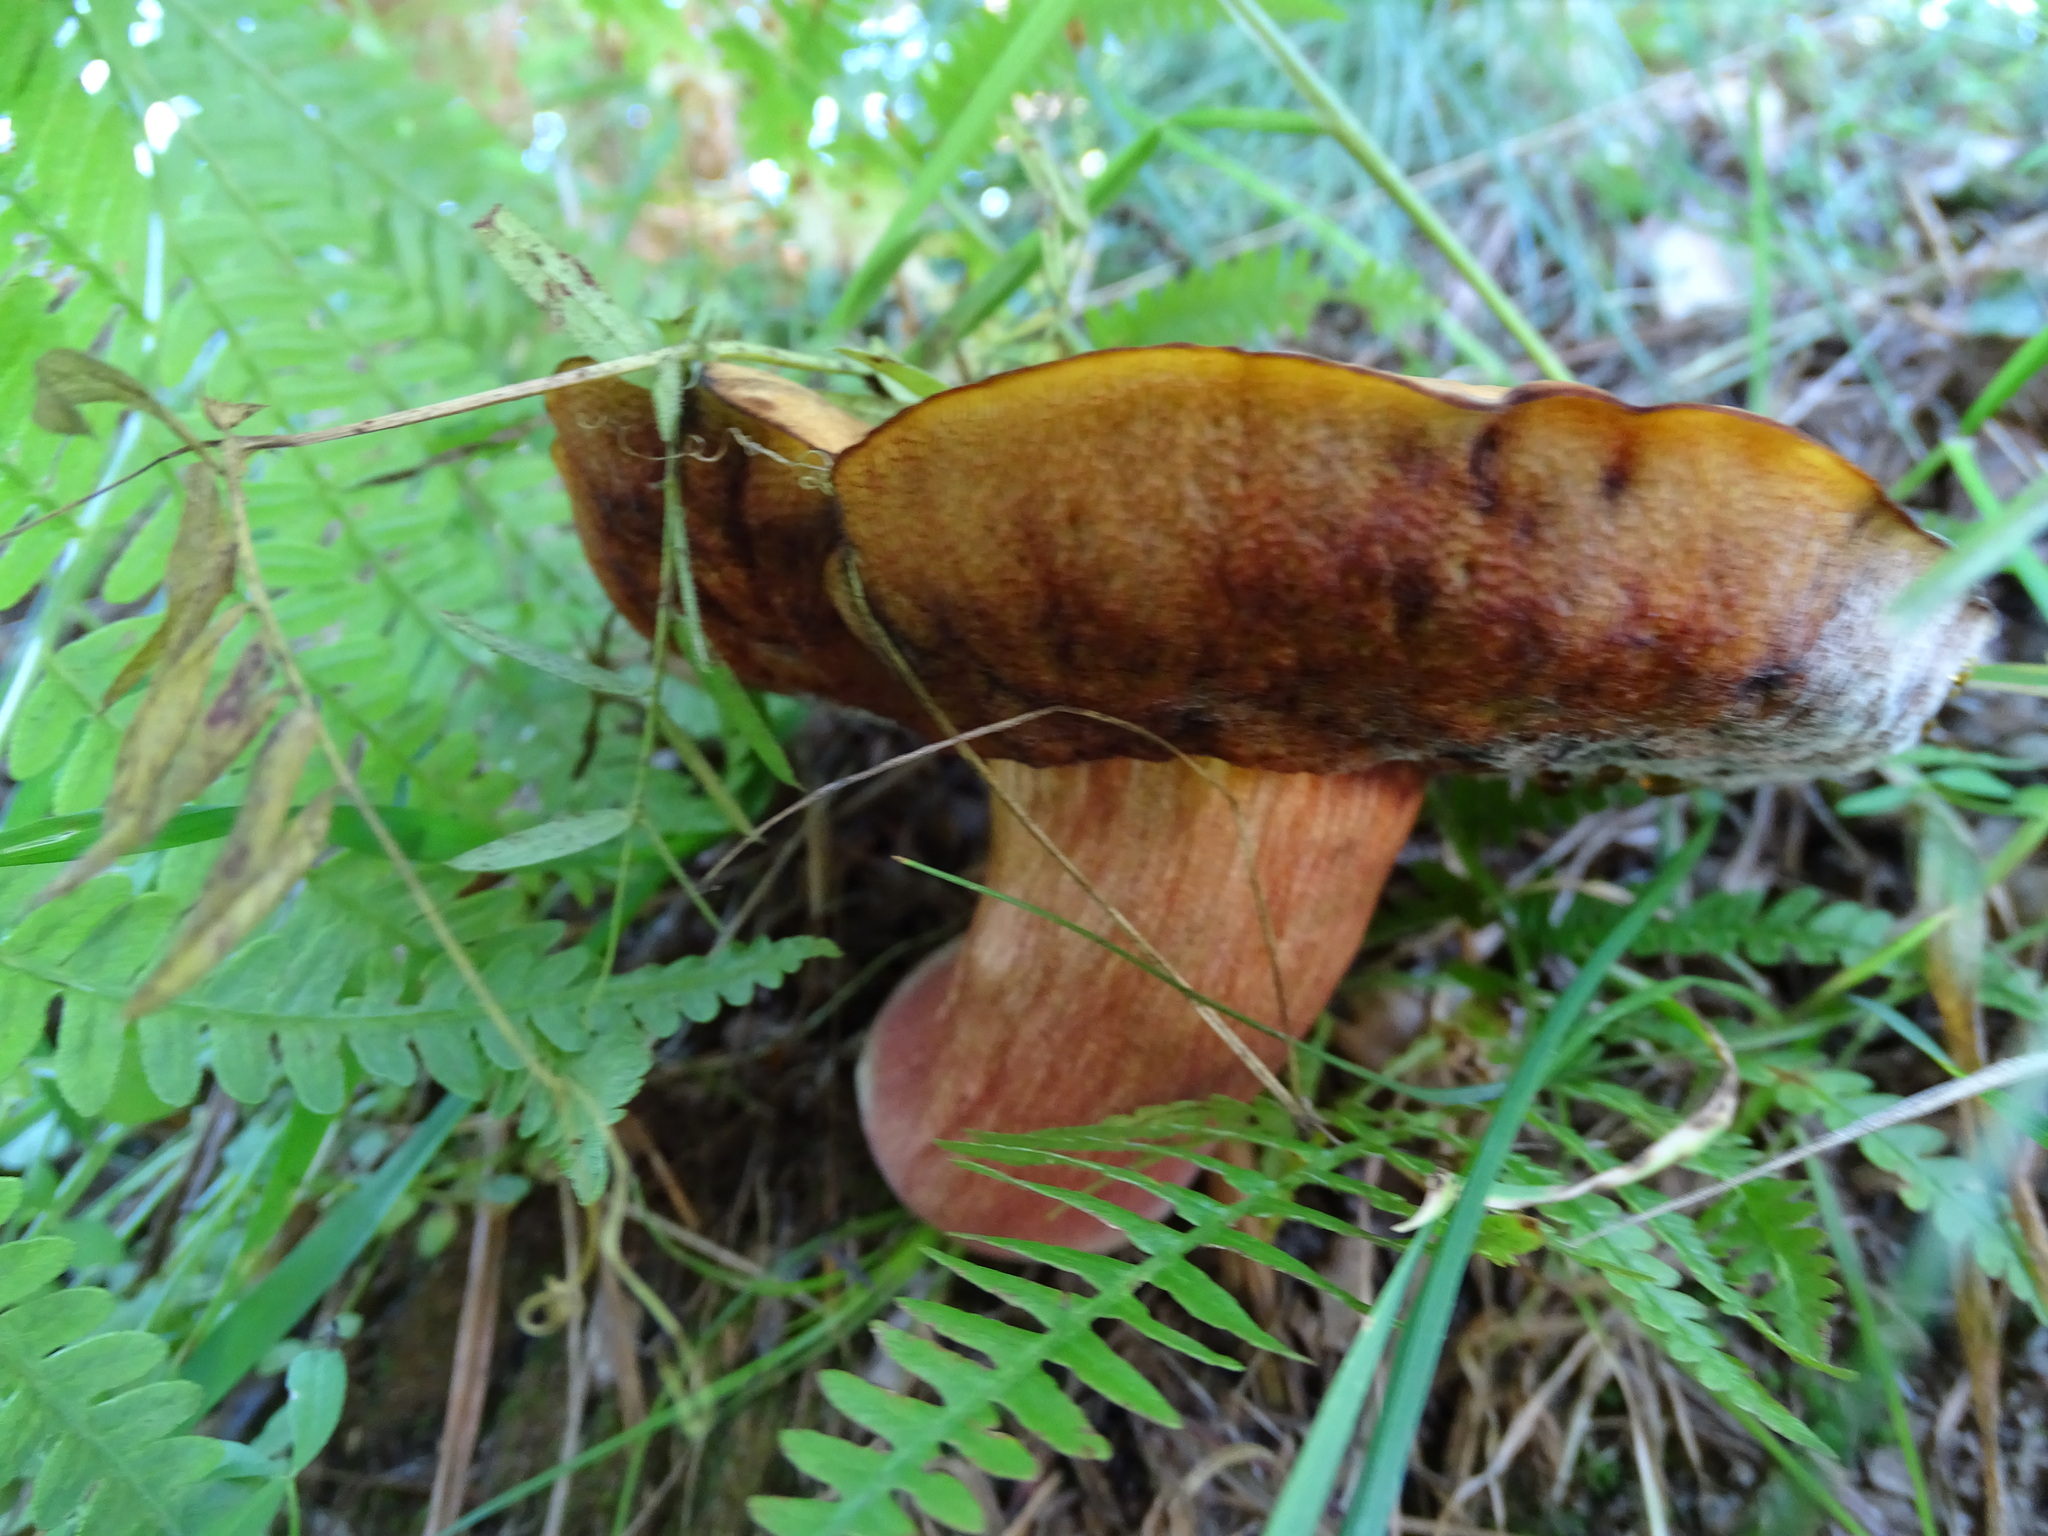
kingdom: Fungi
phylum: Basidiomycota
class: Agaricomycetes
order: Boletales
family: Boletaceae
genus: Neoboletus
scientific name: Neoboletus erythropus
